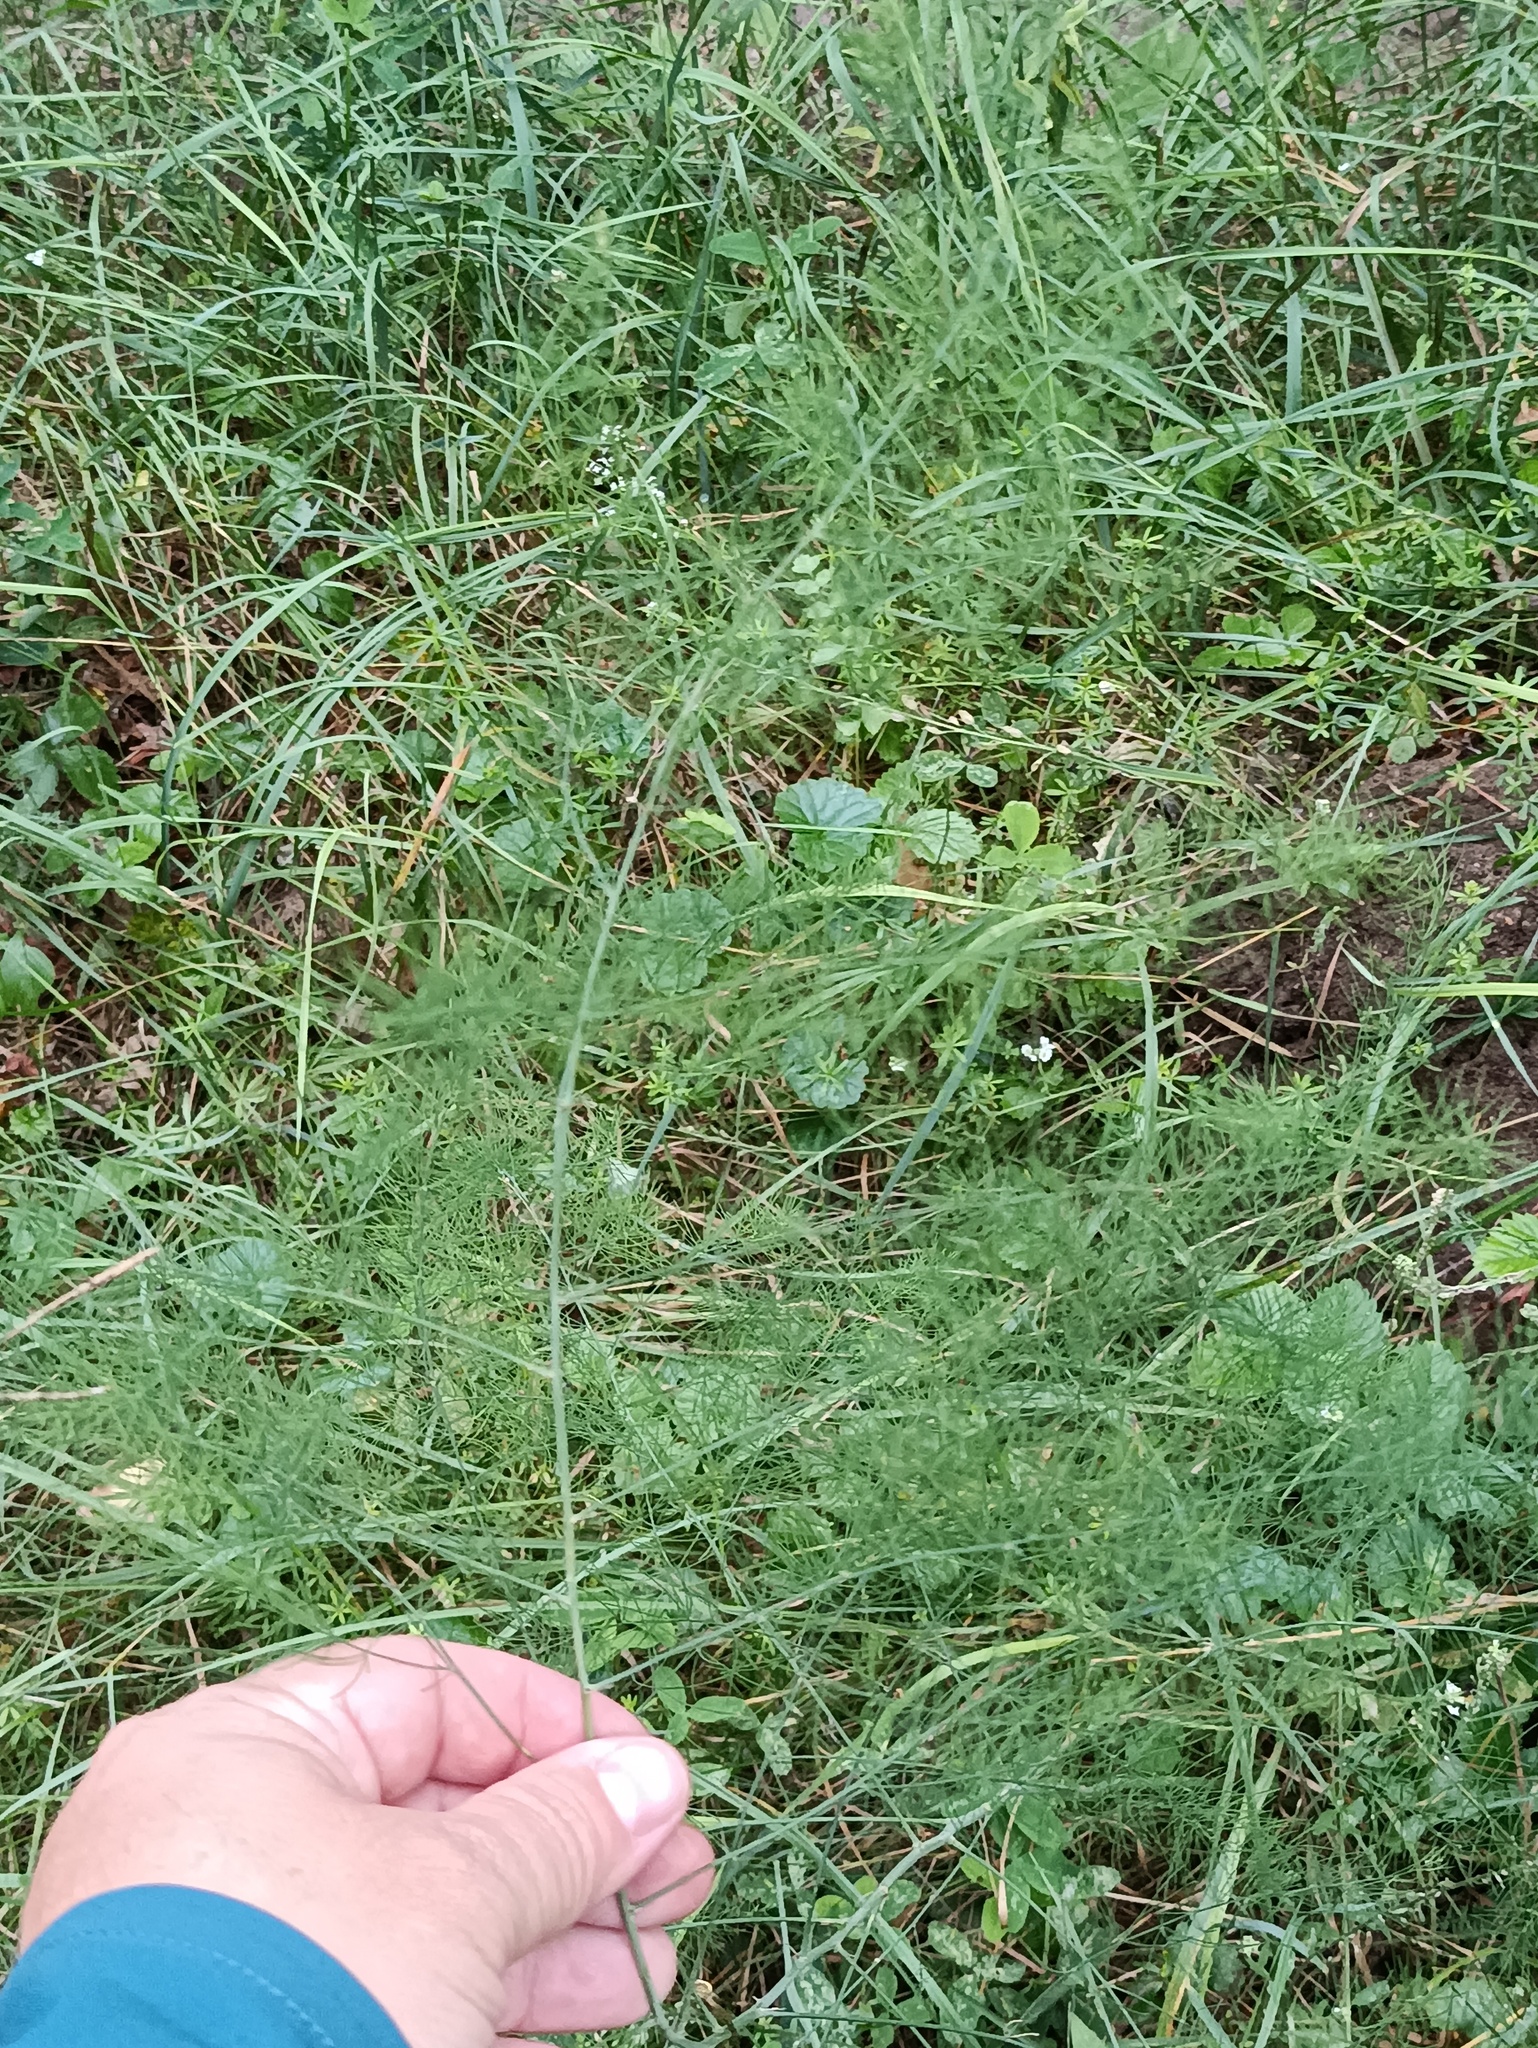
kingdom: Plantae
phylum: Tracheophyta
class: Liliopsida
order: Asparagales
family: Asparagaceae
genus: Asparagus
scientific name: Asparagus officinalis
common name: Garden asparagus
